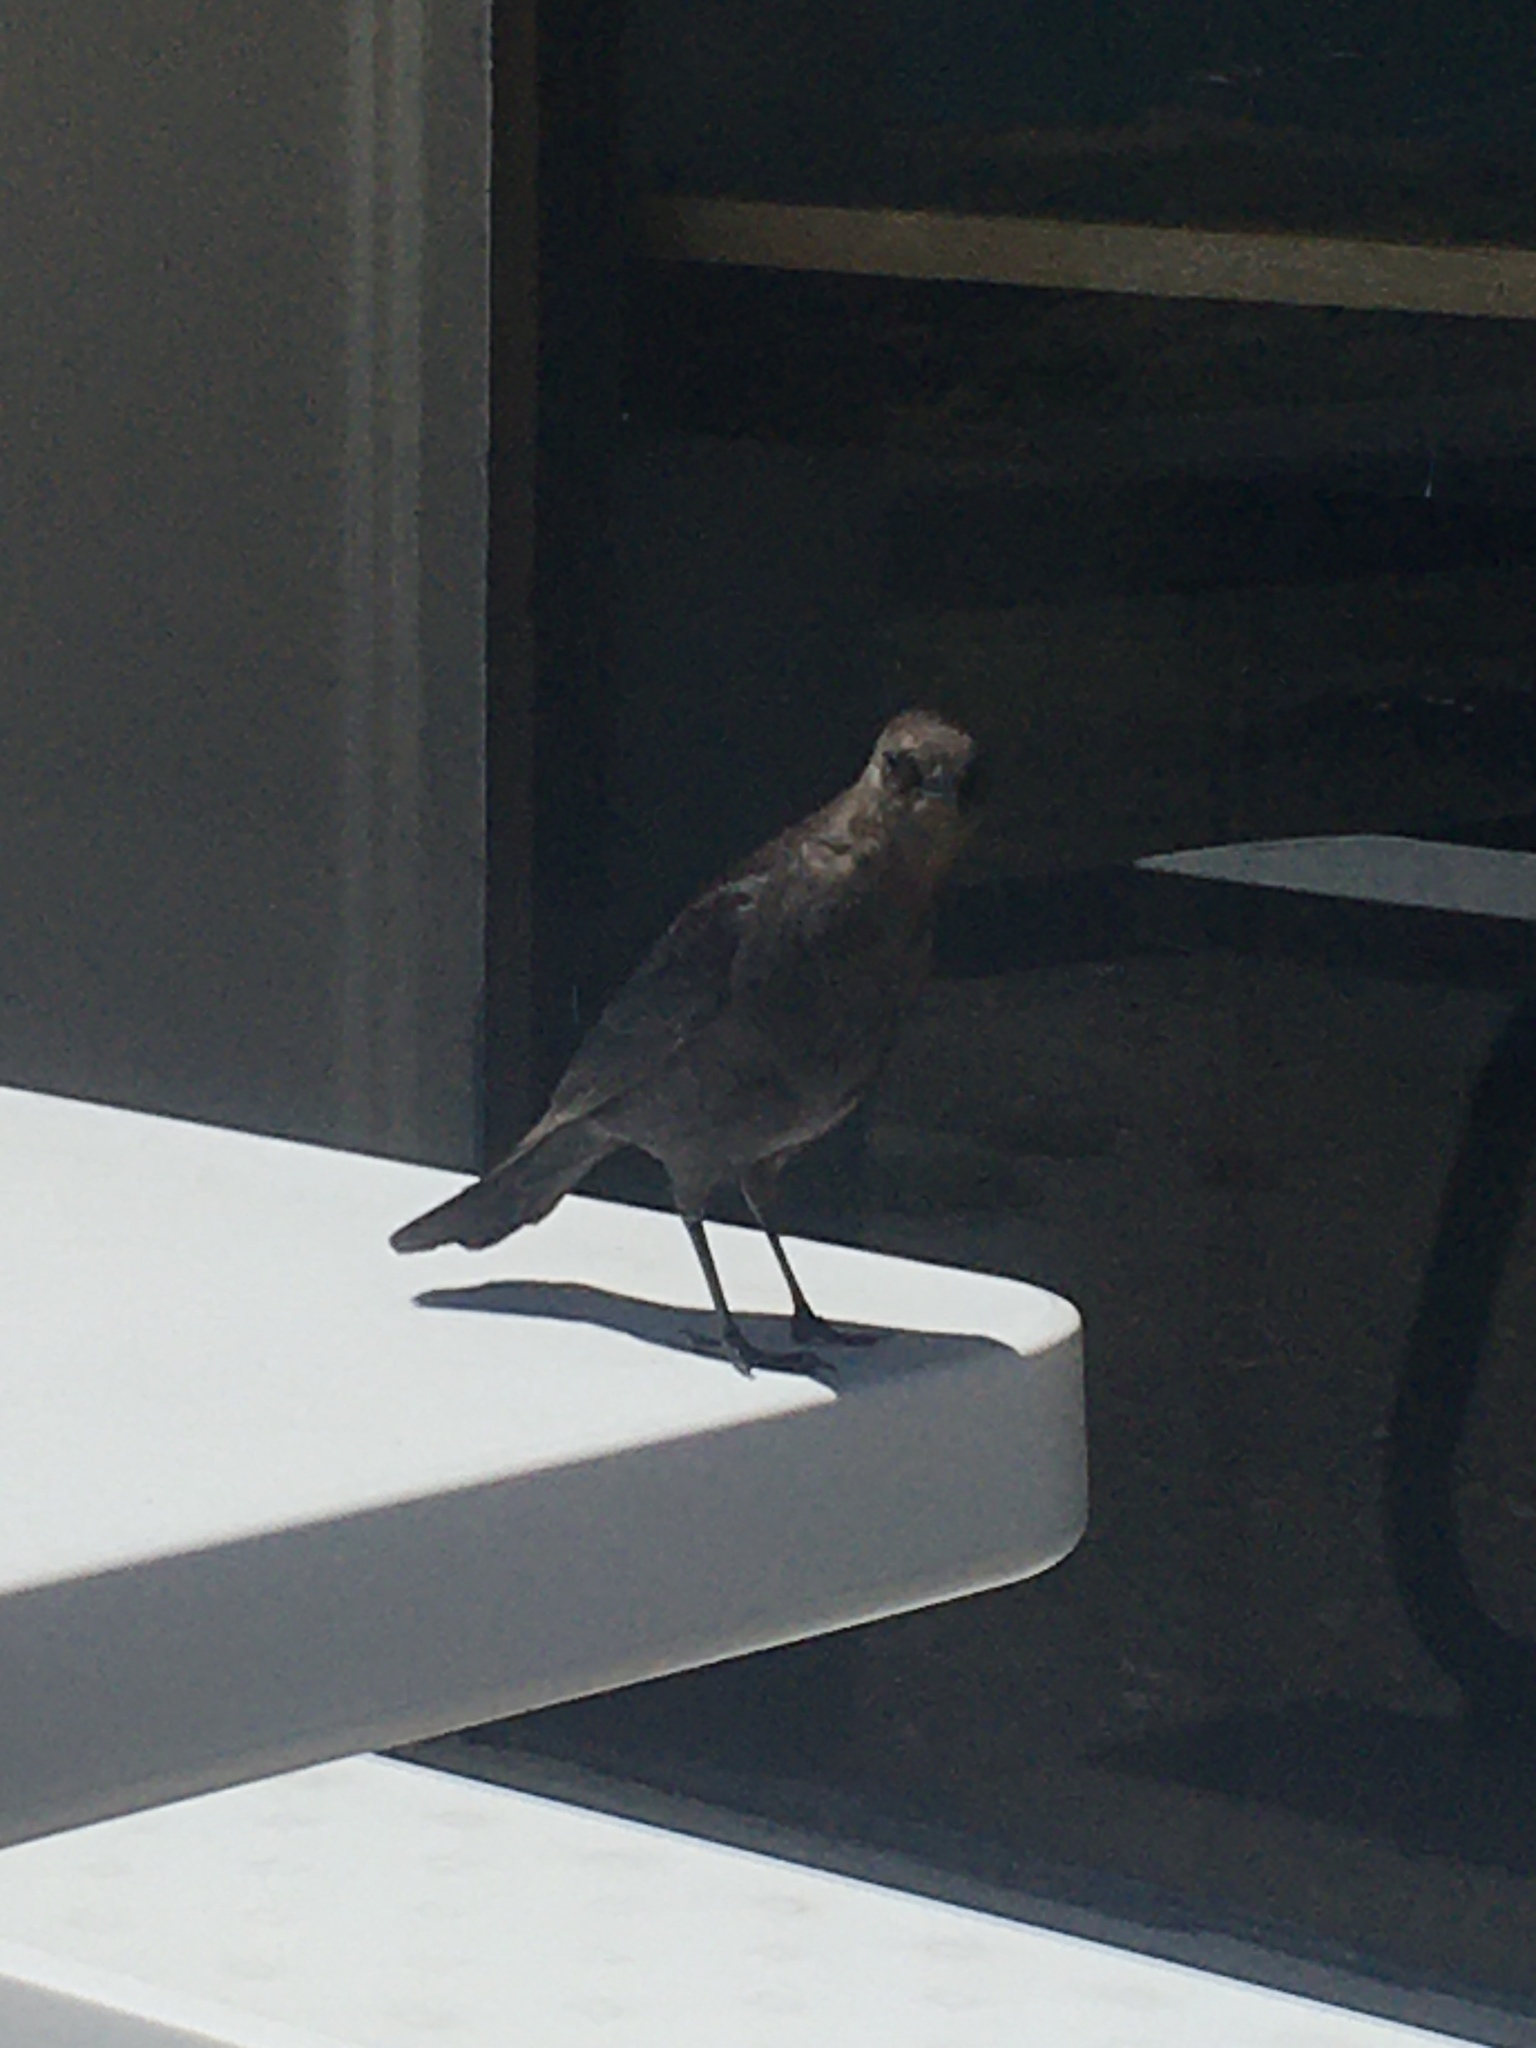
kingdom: Animalia
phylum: Chordata
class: Aves
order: Passeriformes
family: Icteridae
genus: Euphagus
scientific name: Euphagus cyanocephalus
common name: Brewer's blackbird
